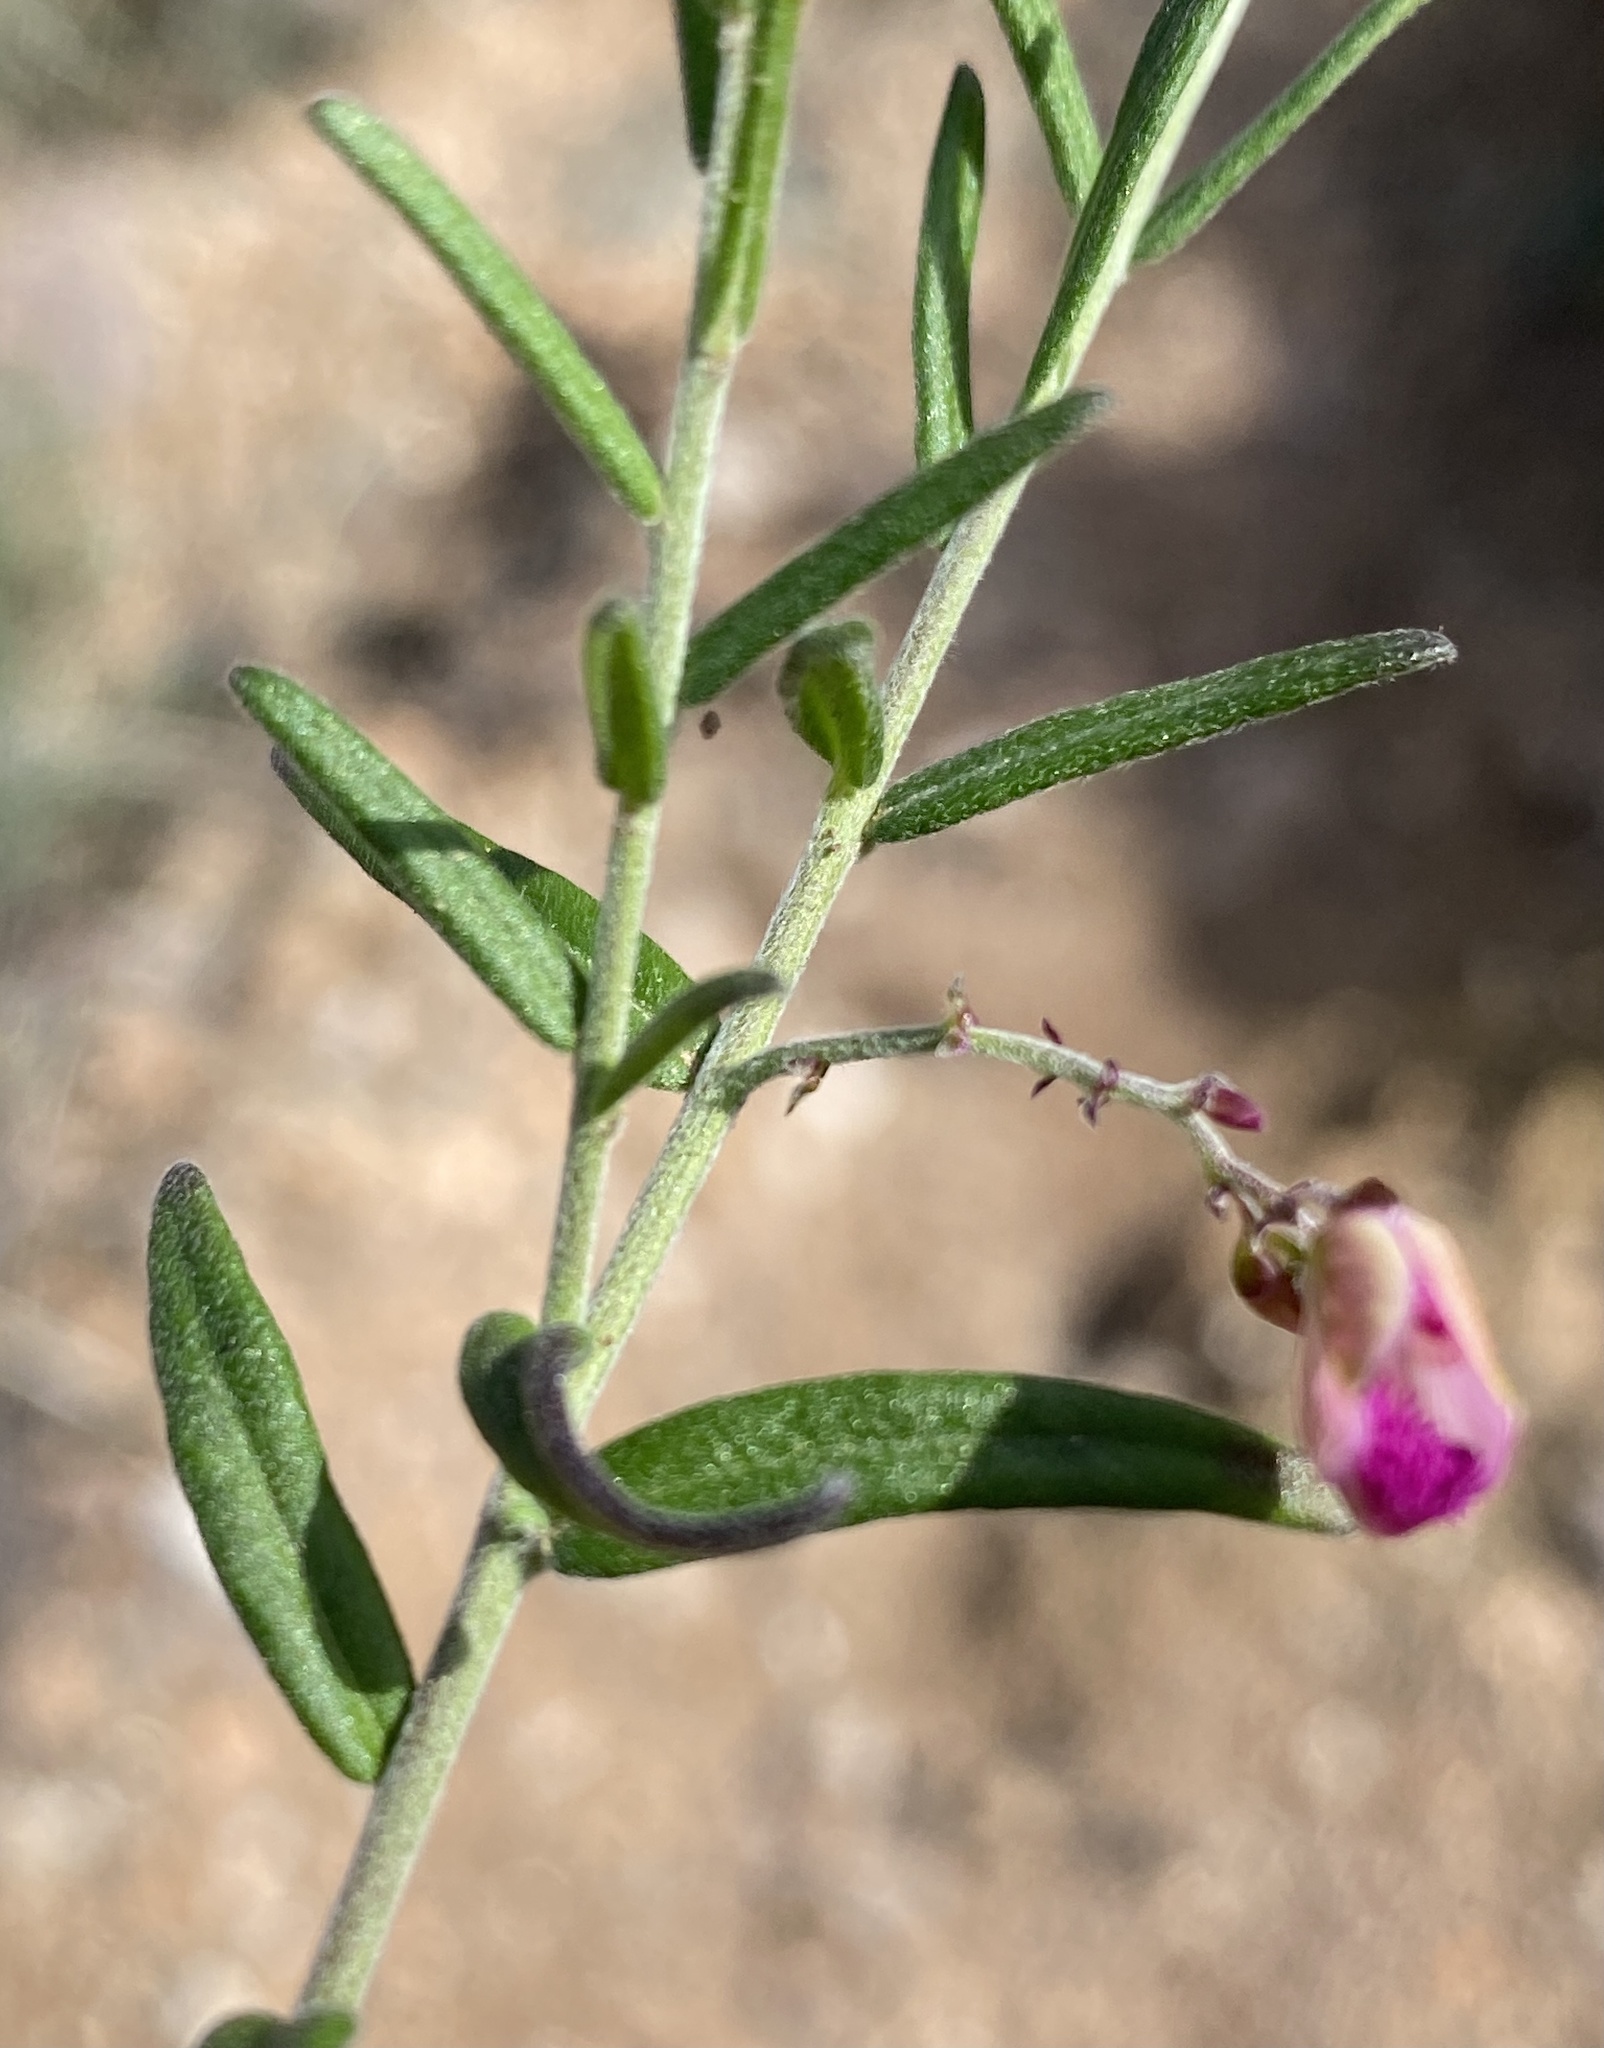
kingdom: Plantae
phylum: Tracheophyta
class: Magnoliopsida
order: Fabales
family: Polygalaceae
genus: Polygala
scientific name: Polygala scabra
